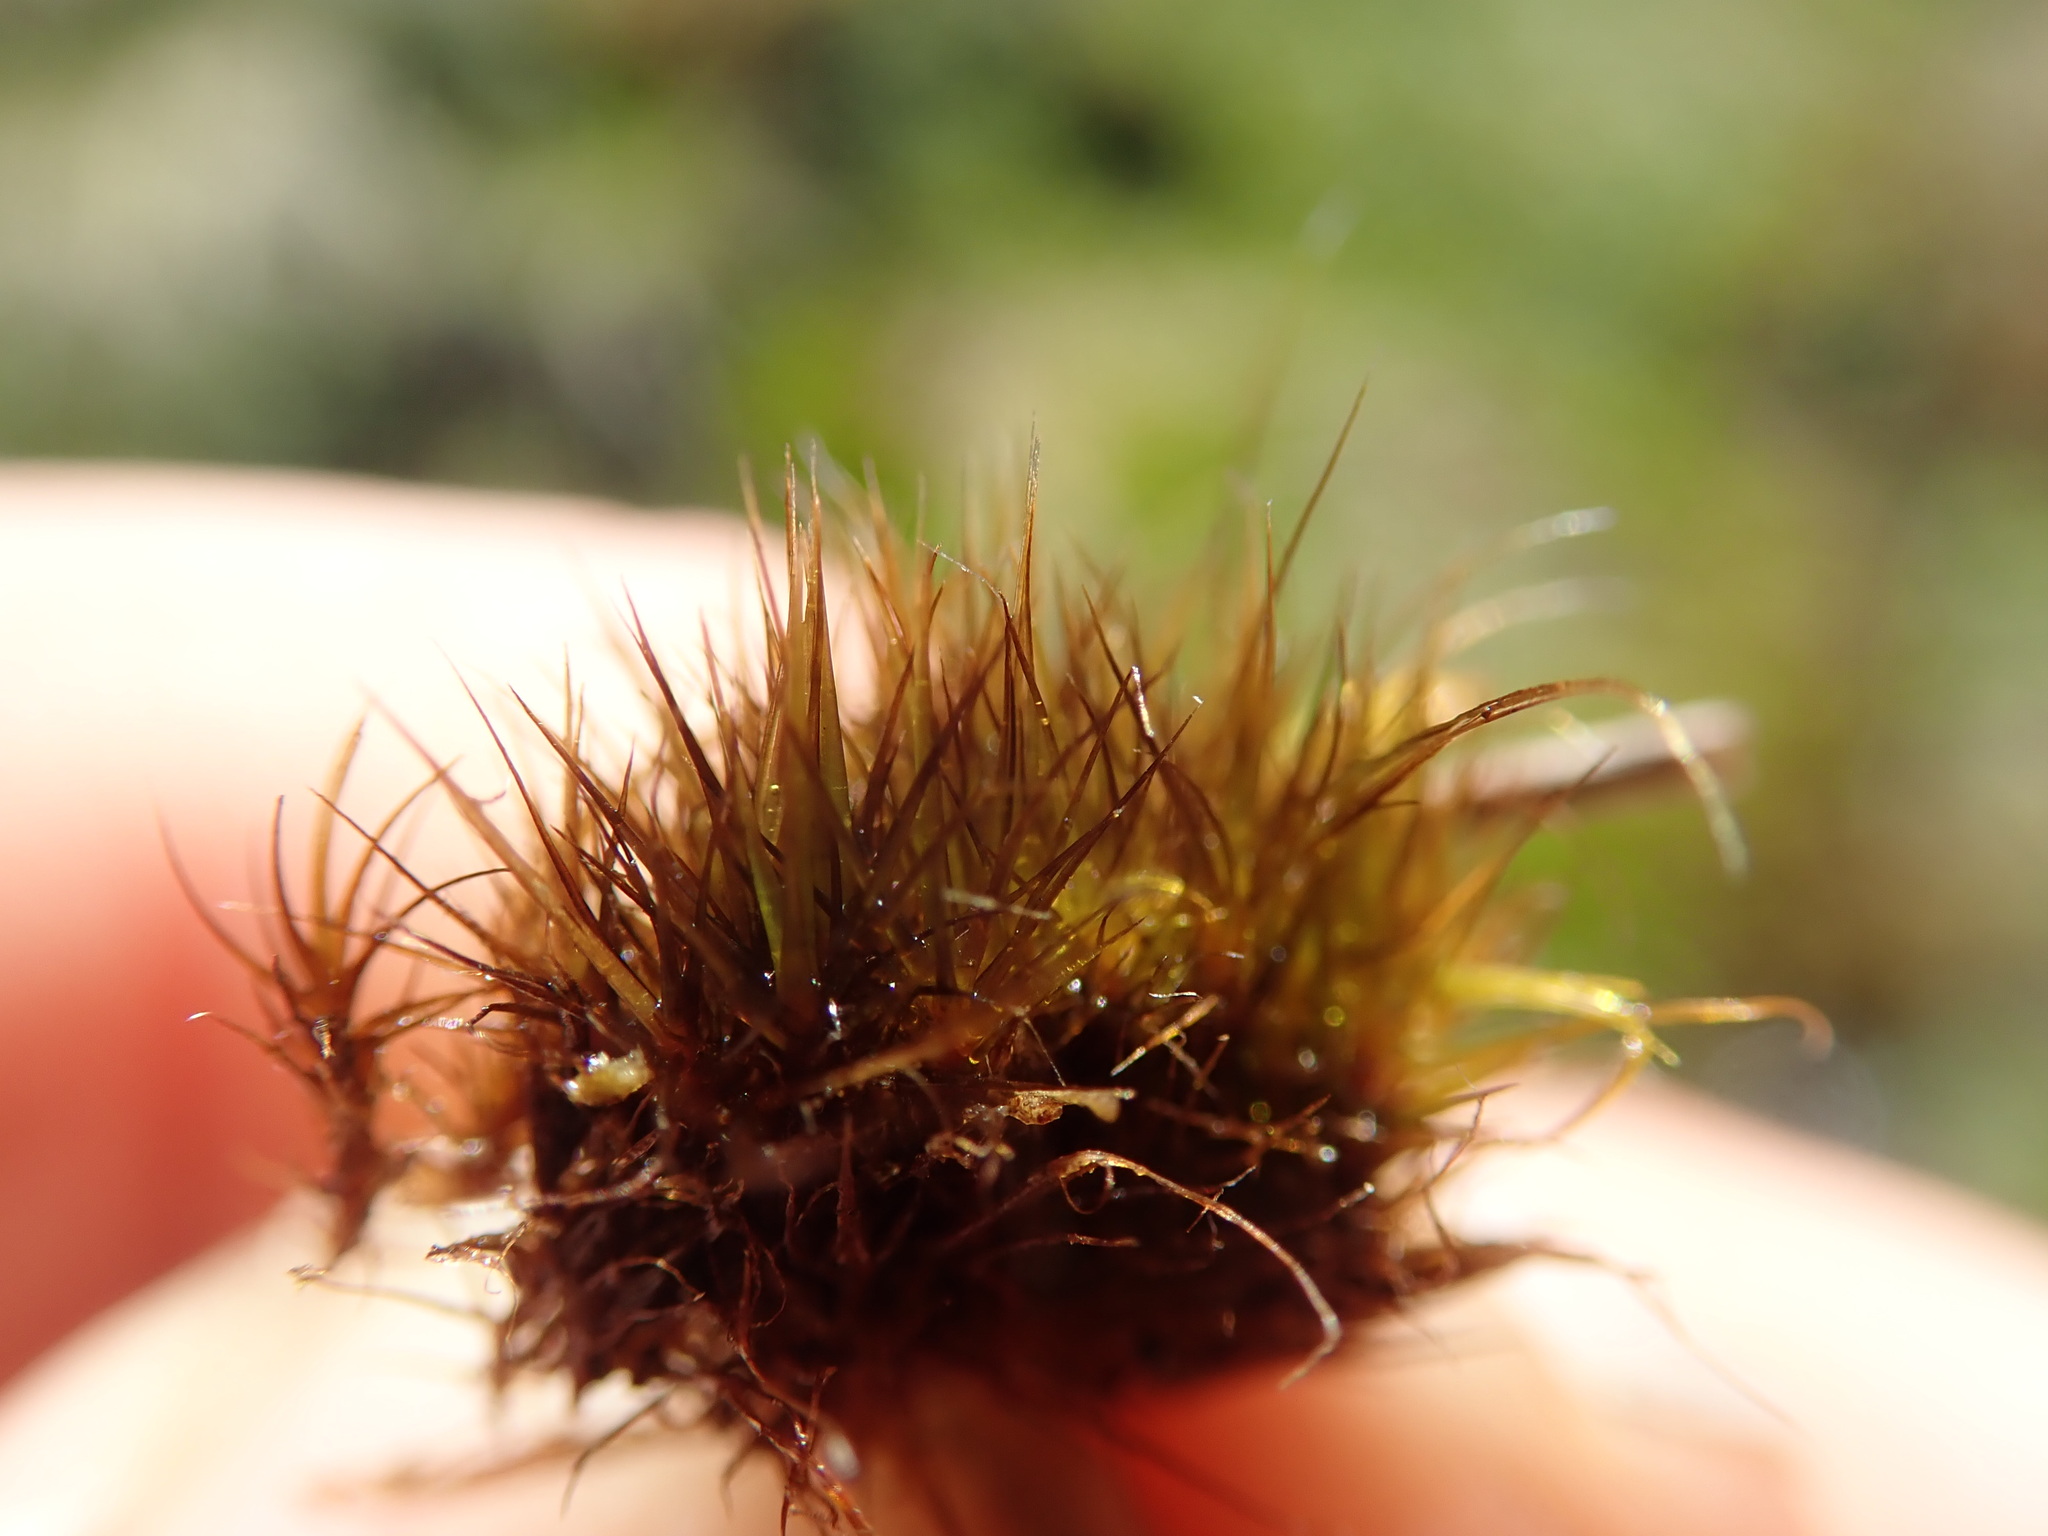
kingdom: Plantae
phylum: Bryophyta
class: Bryopsida
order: Dicranales
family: Leucobryaceae
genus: Campylopus
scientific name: Campylopus atrovirens
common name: Bristly swan-neck moss
